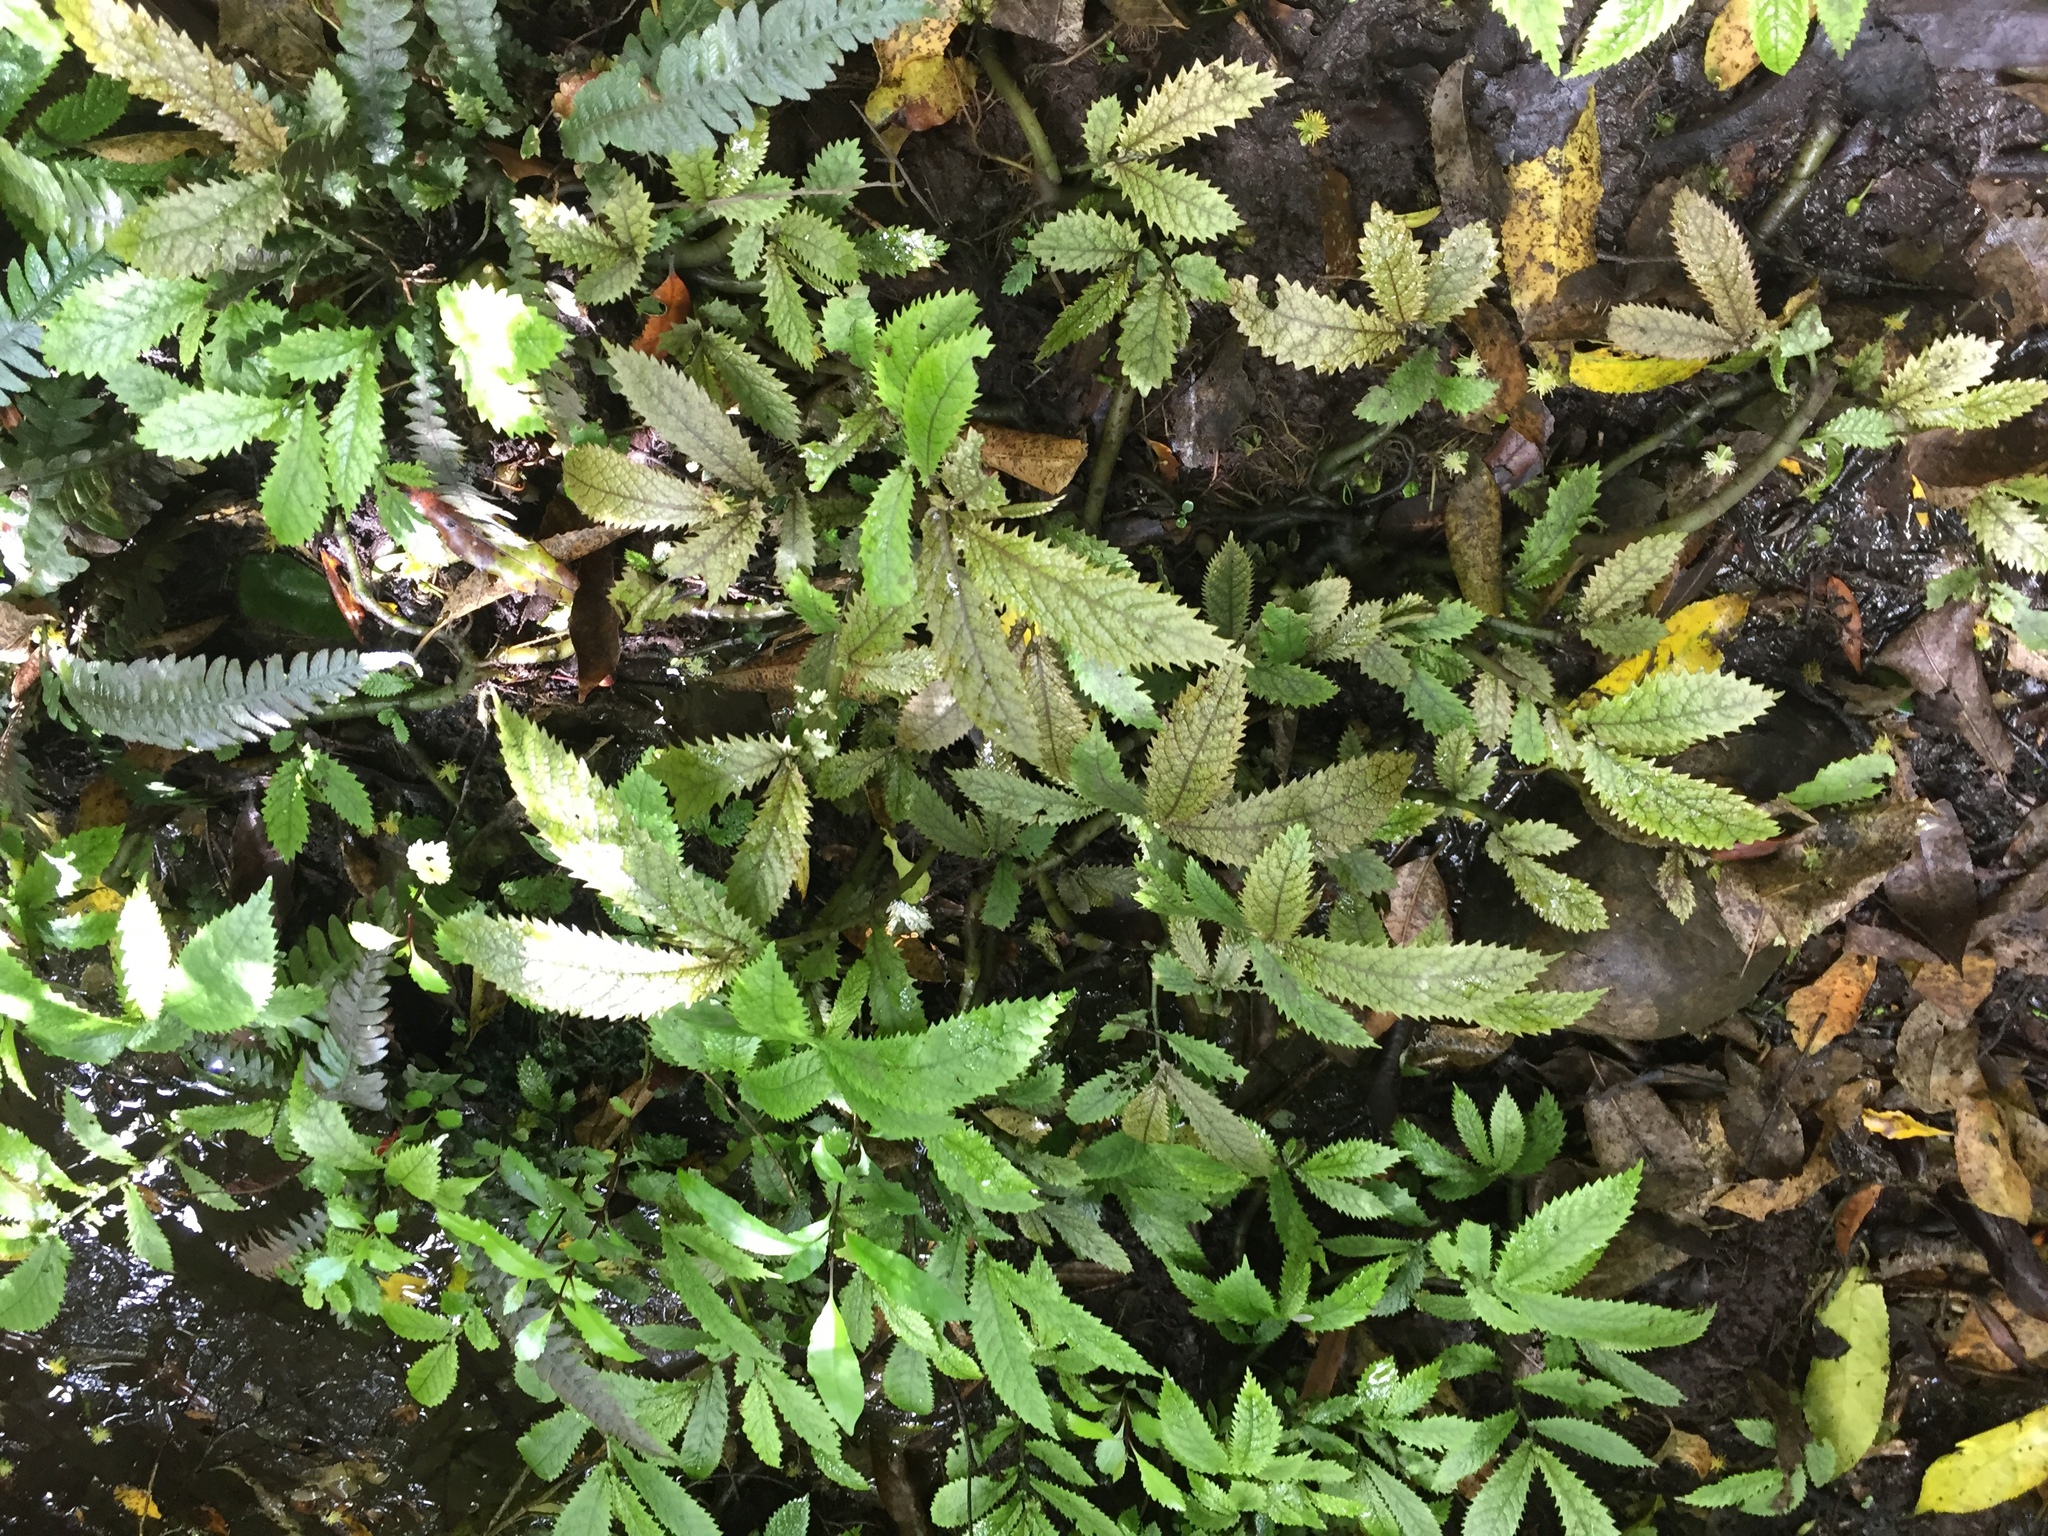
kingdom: Plantae
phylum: Tracheophyta
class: Magnoliopsida
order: Rosales
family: Urticaceae
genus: Elatostema
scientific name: Elatostema rugosum
